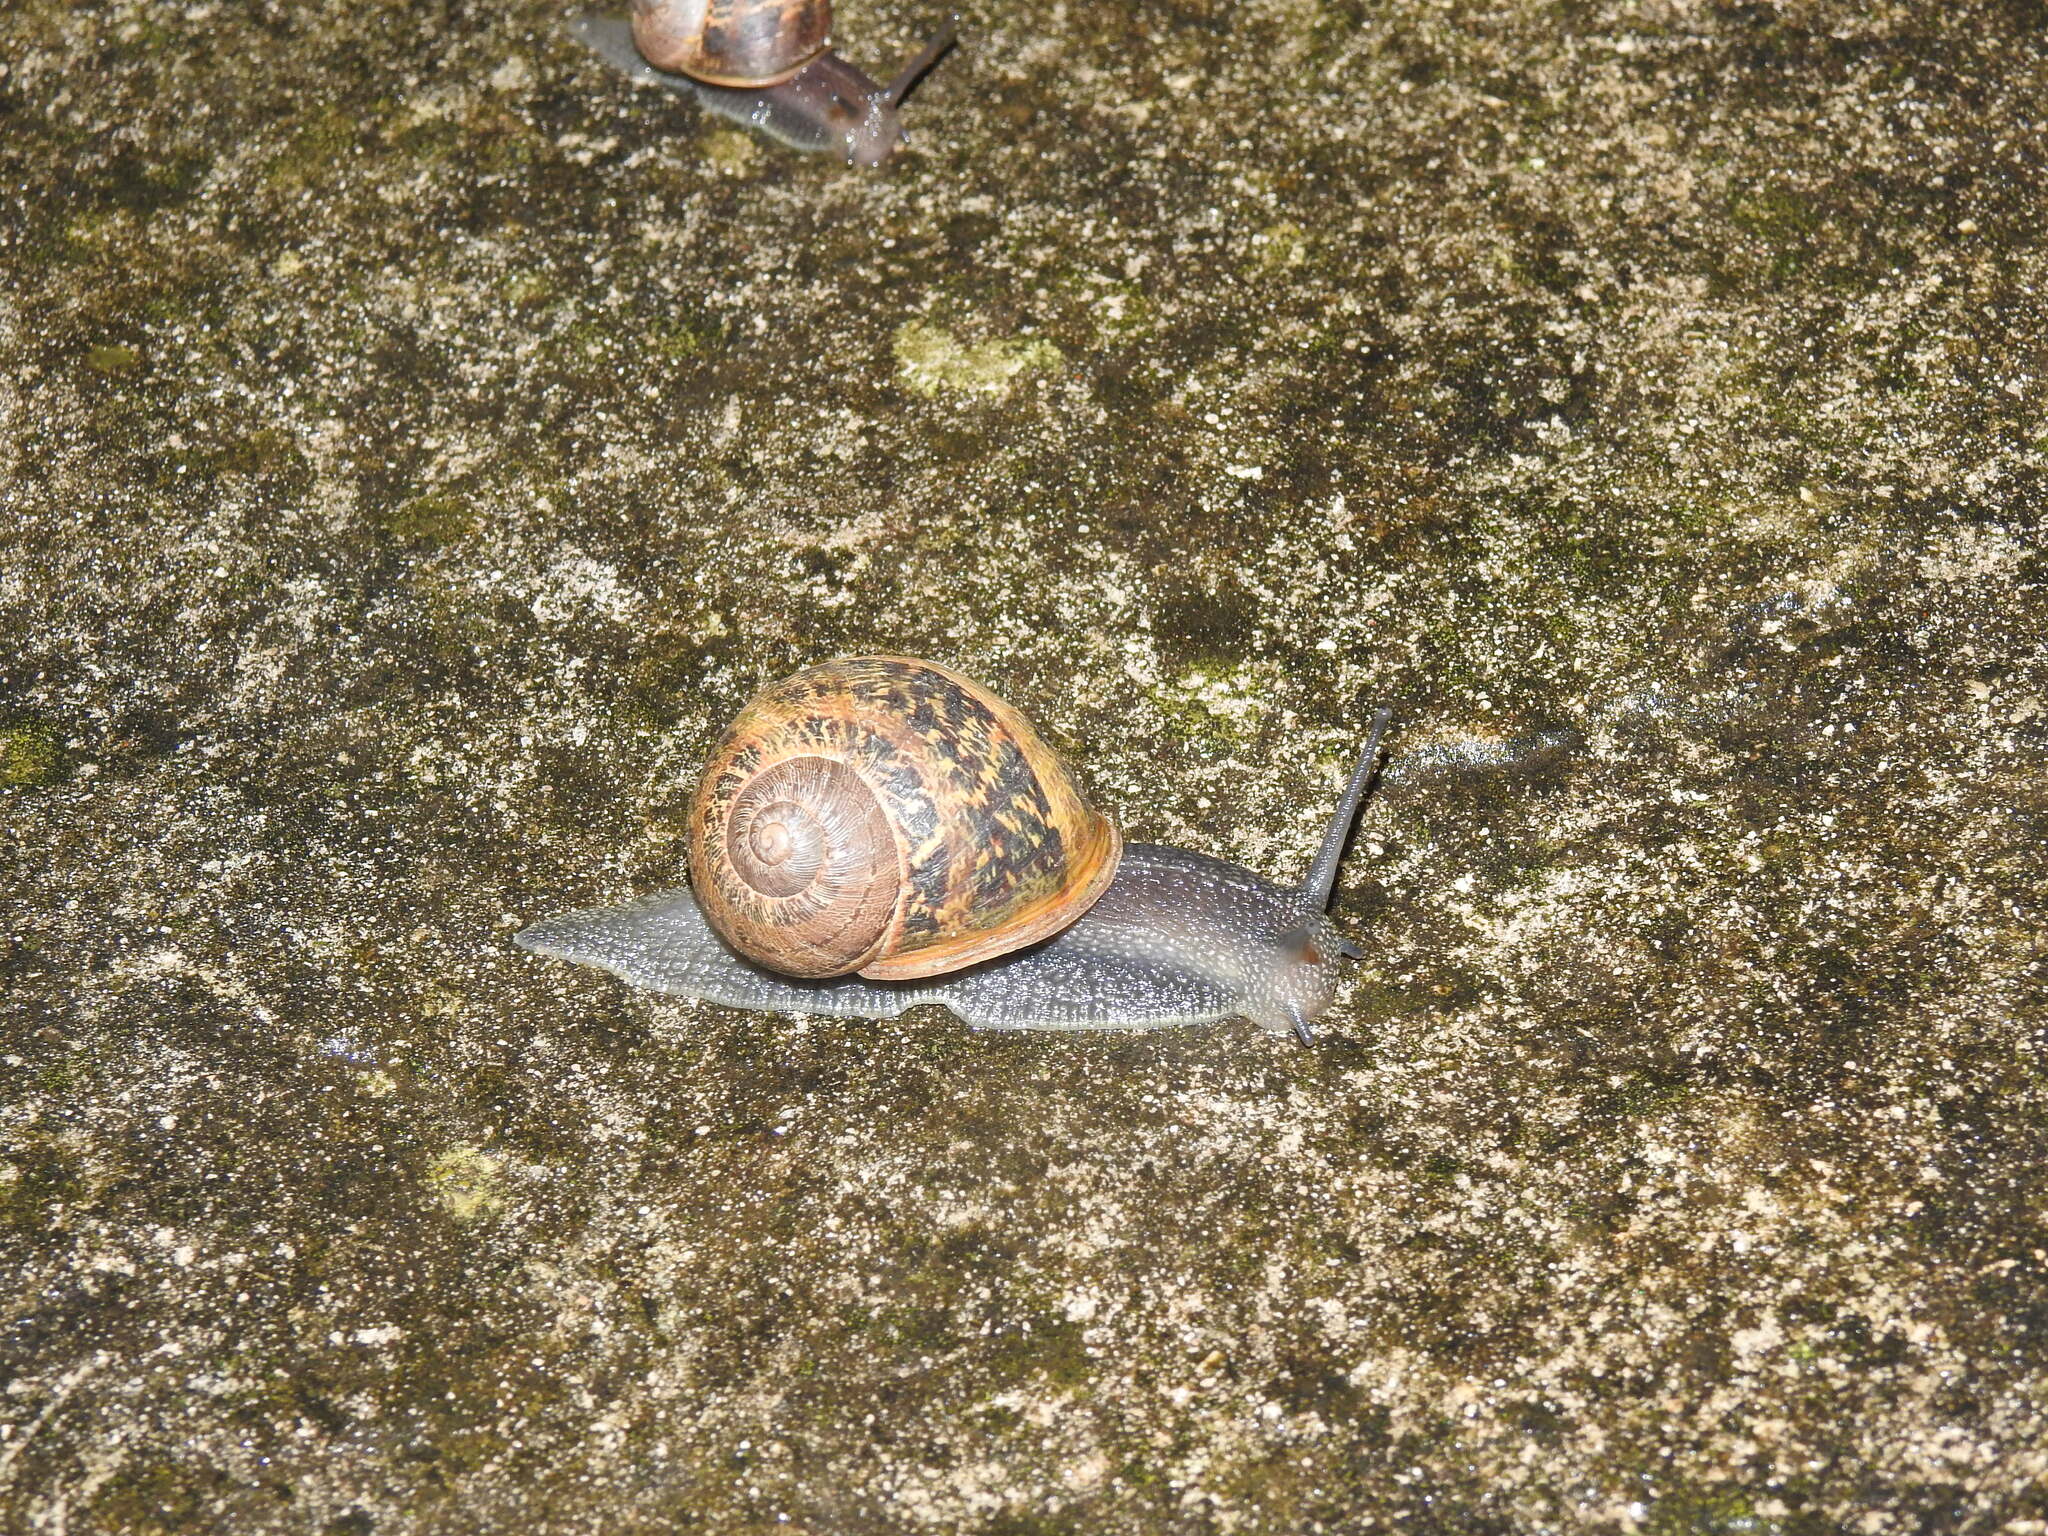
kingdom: Animalia
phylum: Mollusca
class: Gastropoda
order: Stylommatophora
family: Helicidae
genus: Cornu
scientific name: Cornu aspersum
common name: Brown garden snail
